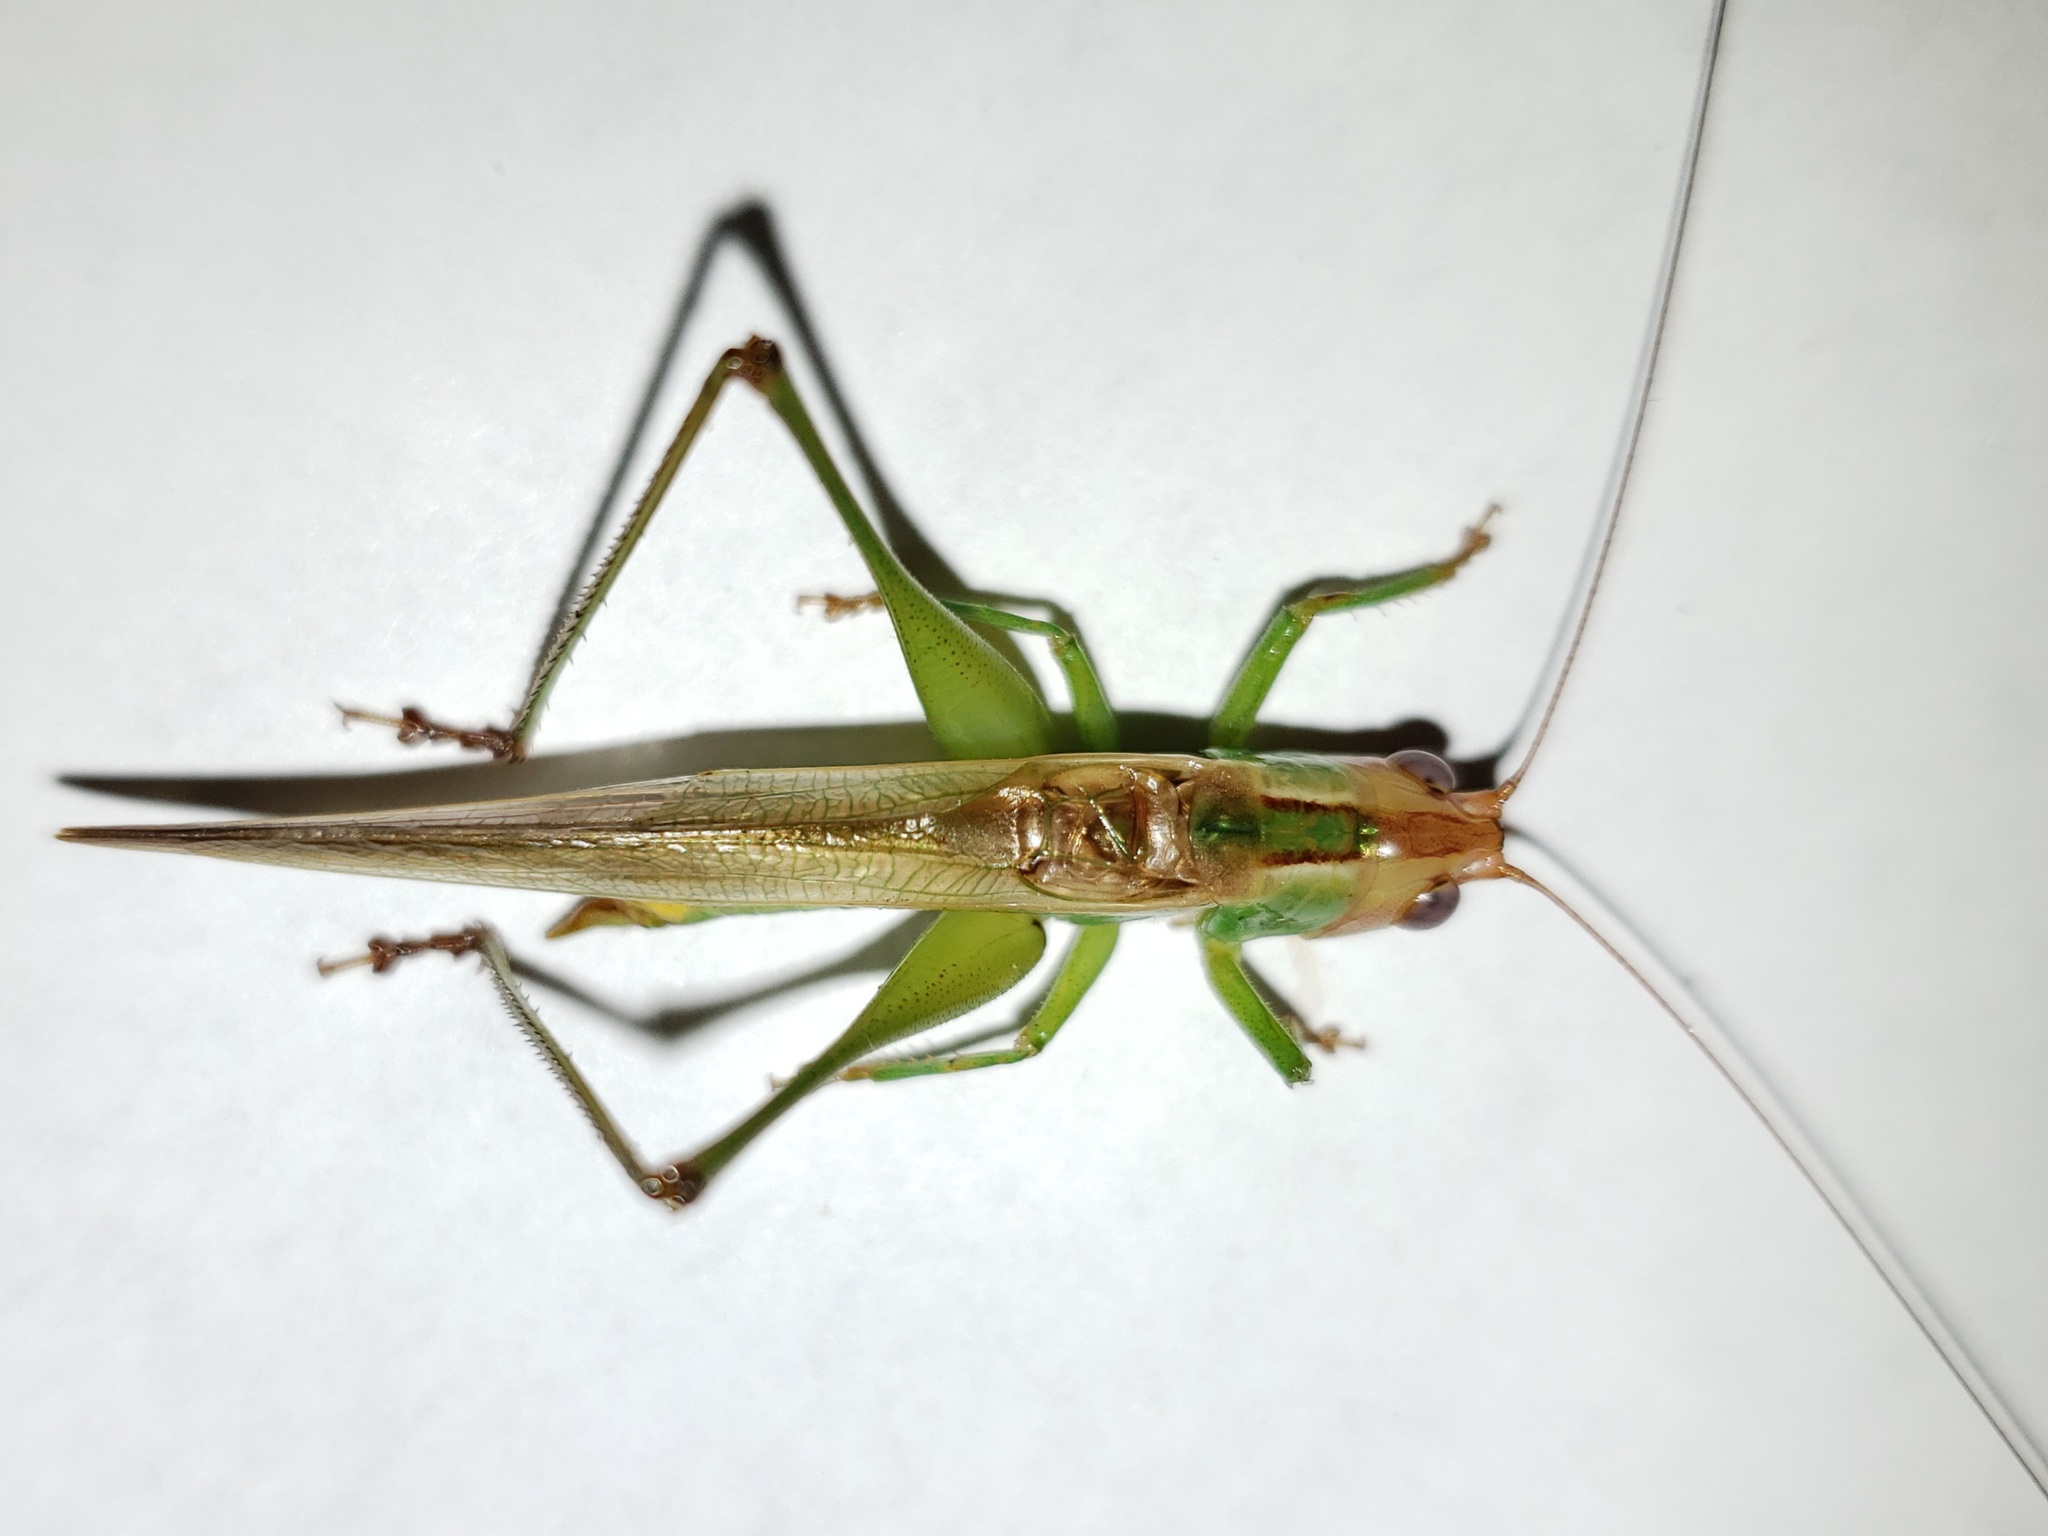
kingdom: Animalia
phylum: Arthropoda
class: Insecta
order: Orthoptera
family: Tettigoniidae
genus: Orchelimum
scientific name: Orchelimum militare
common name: Military meadow katydid
